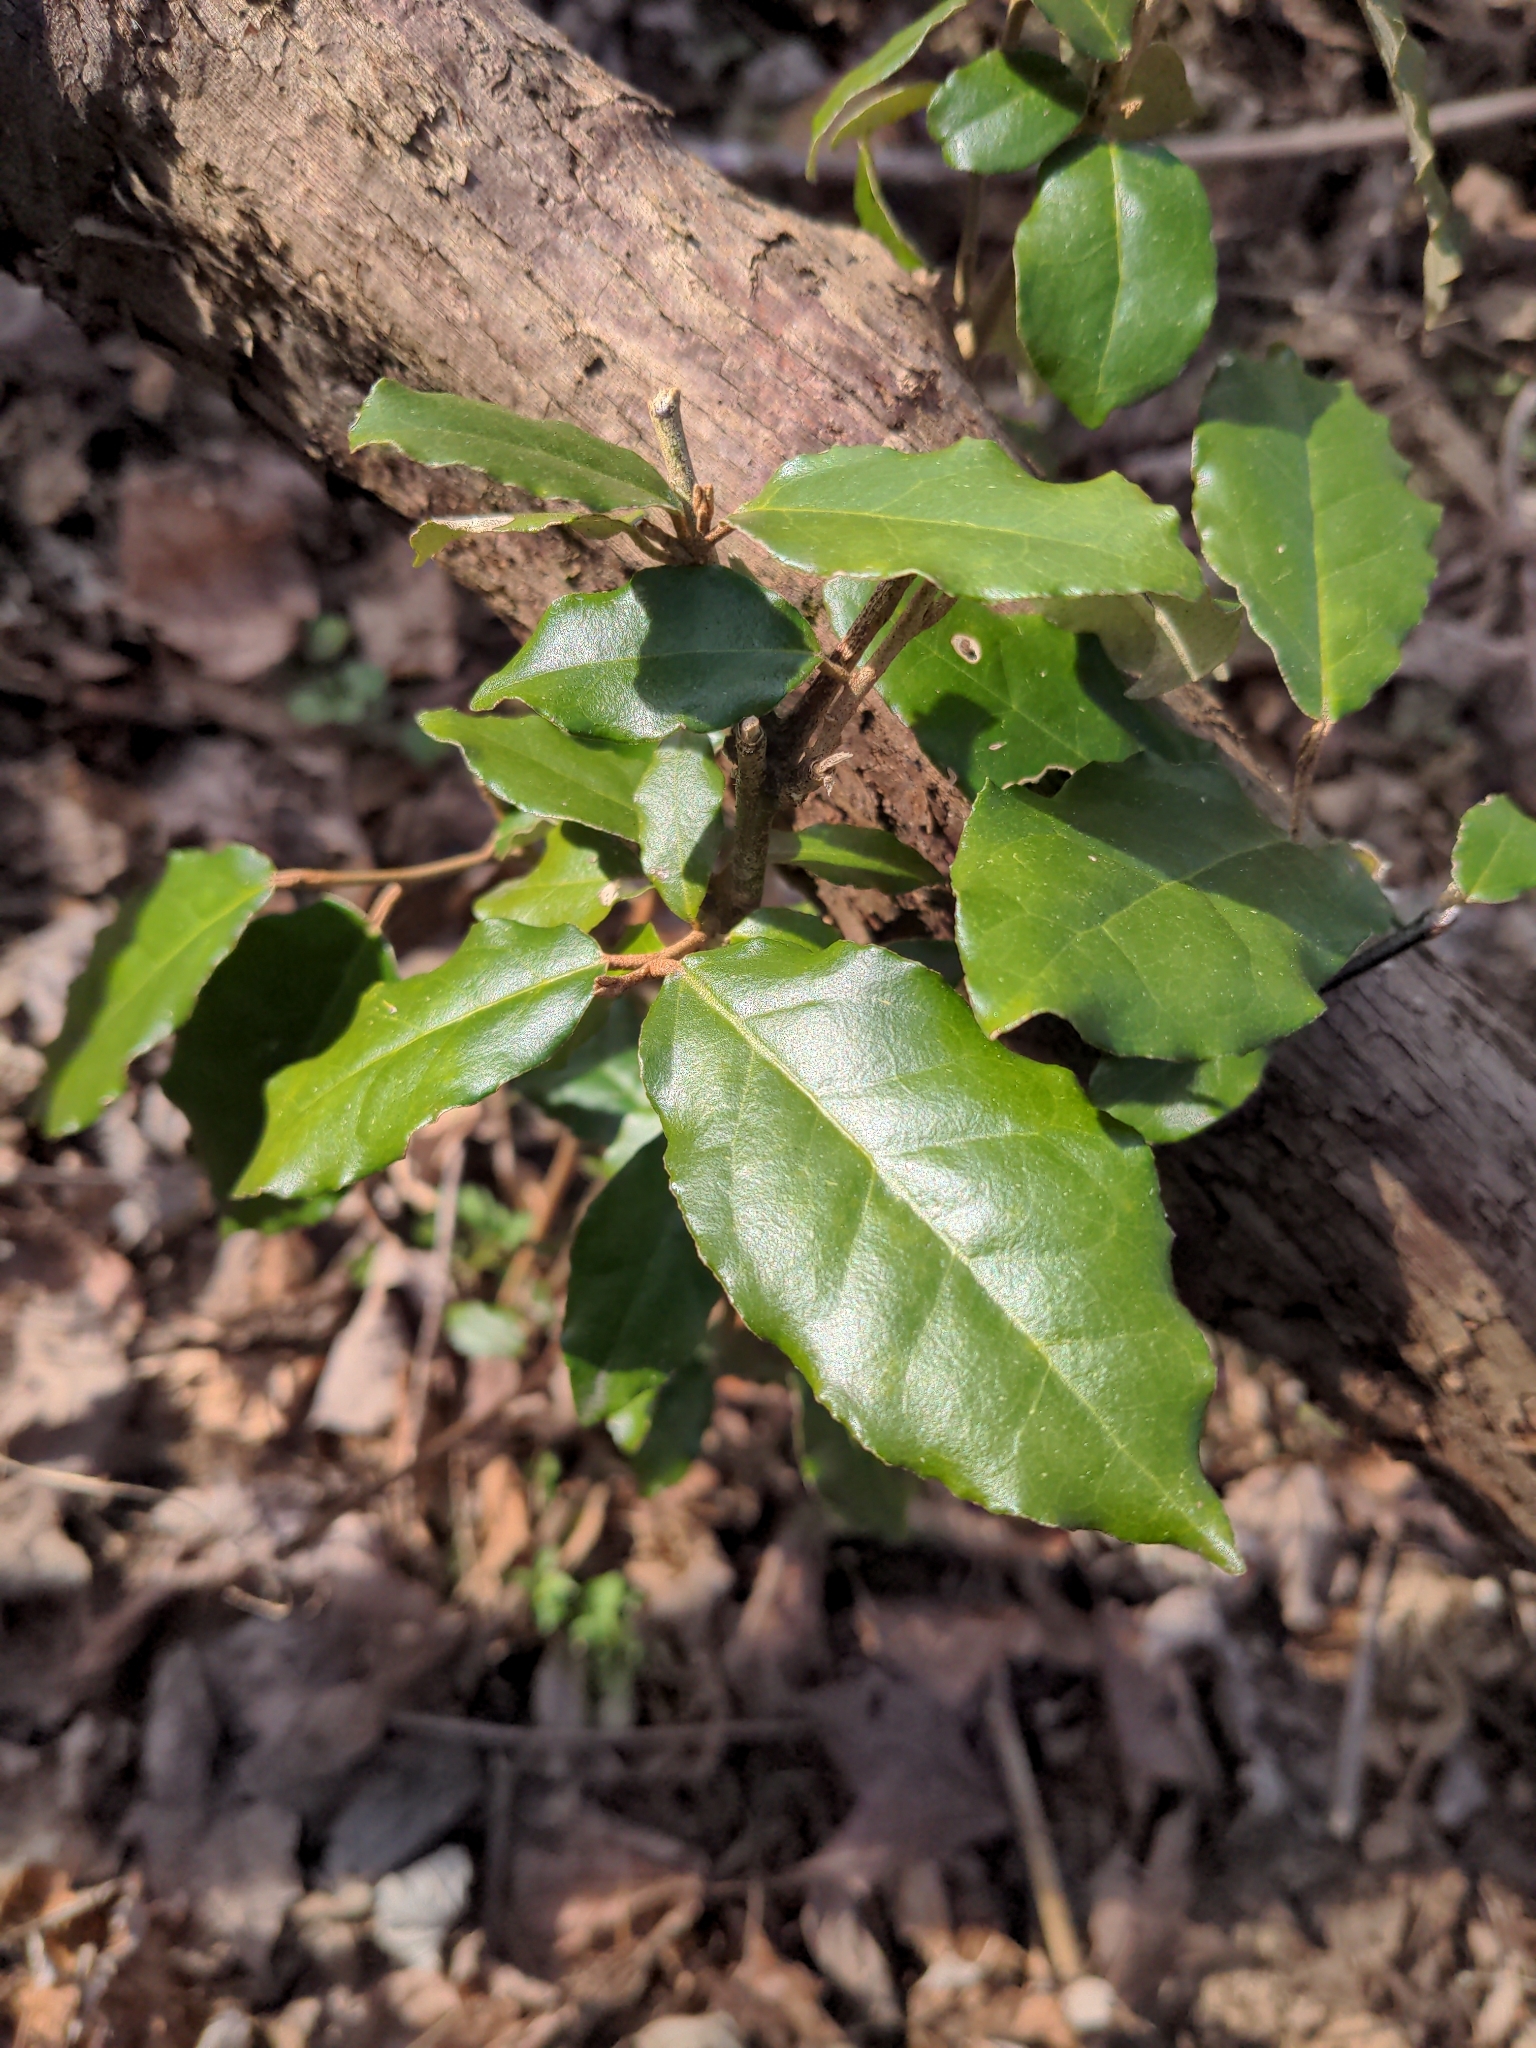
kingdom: Plantae
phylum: Tracheophyta
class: Magnoliopsida
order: Rosales
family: Elaeagnaceae
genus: Elaeagnus
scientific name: Elaeagnus pungens
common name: Spiny oleaster
